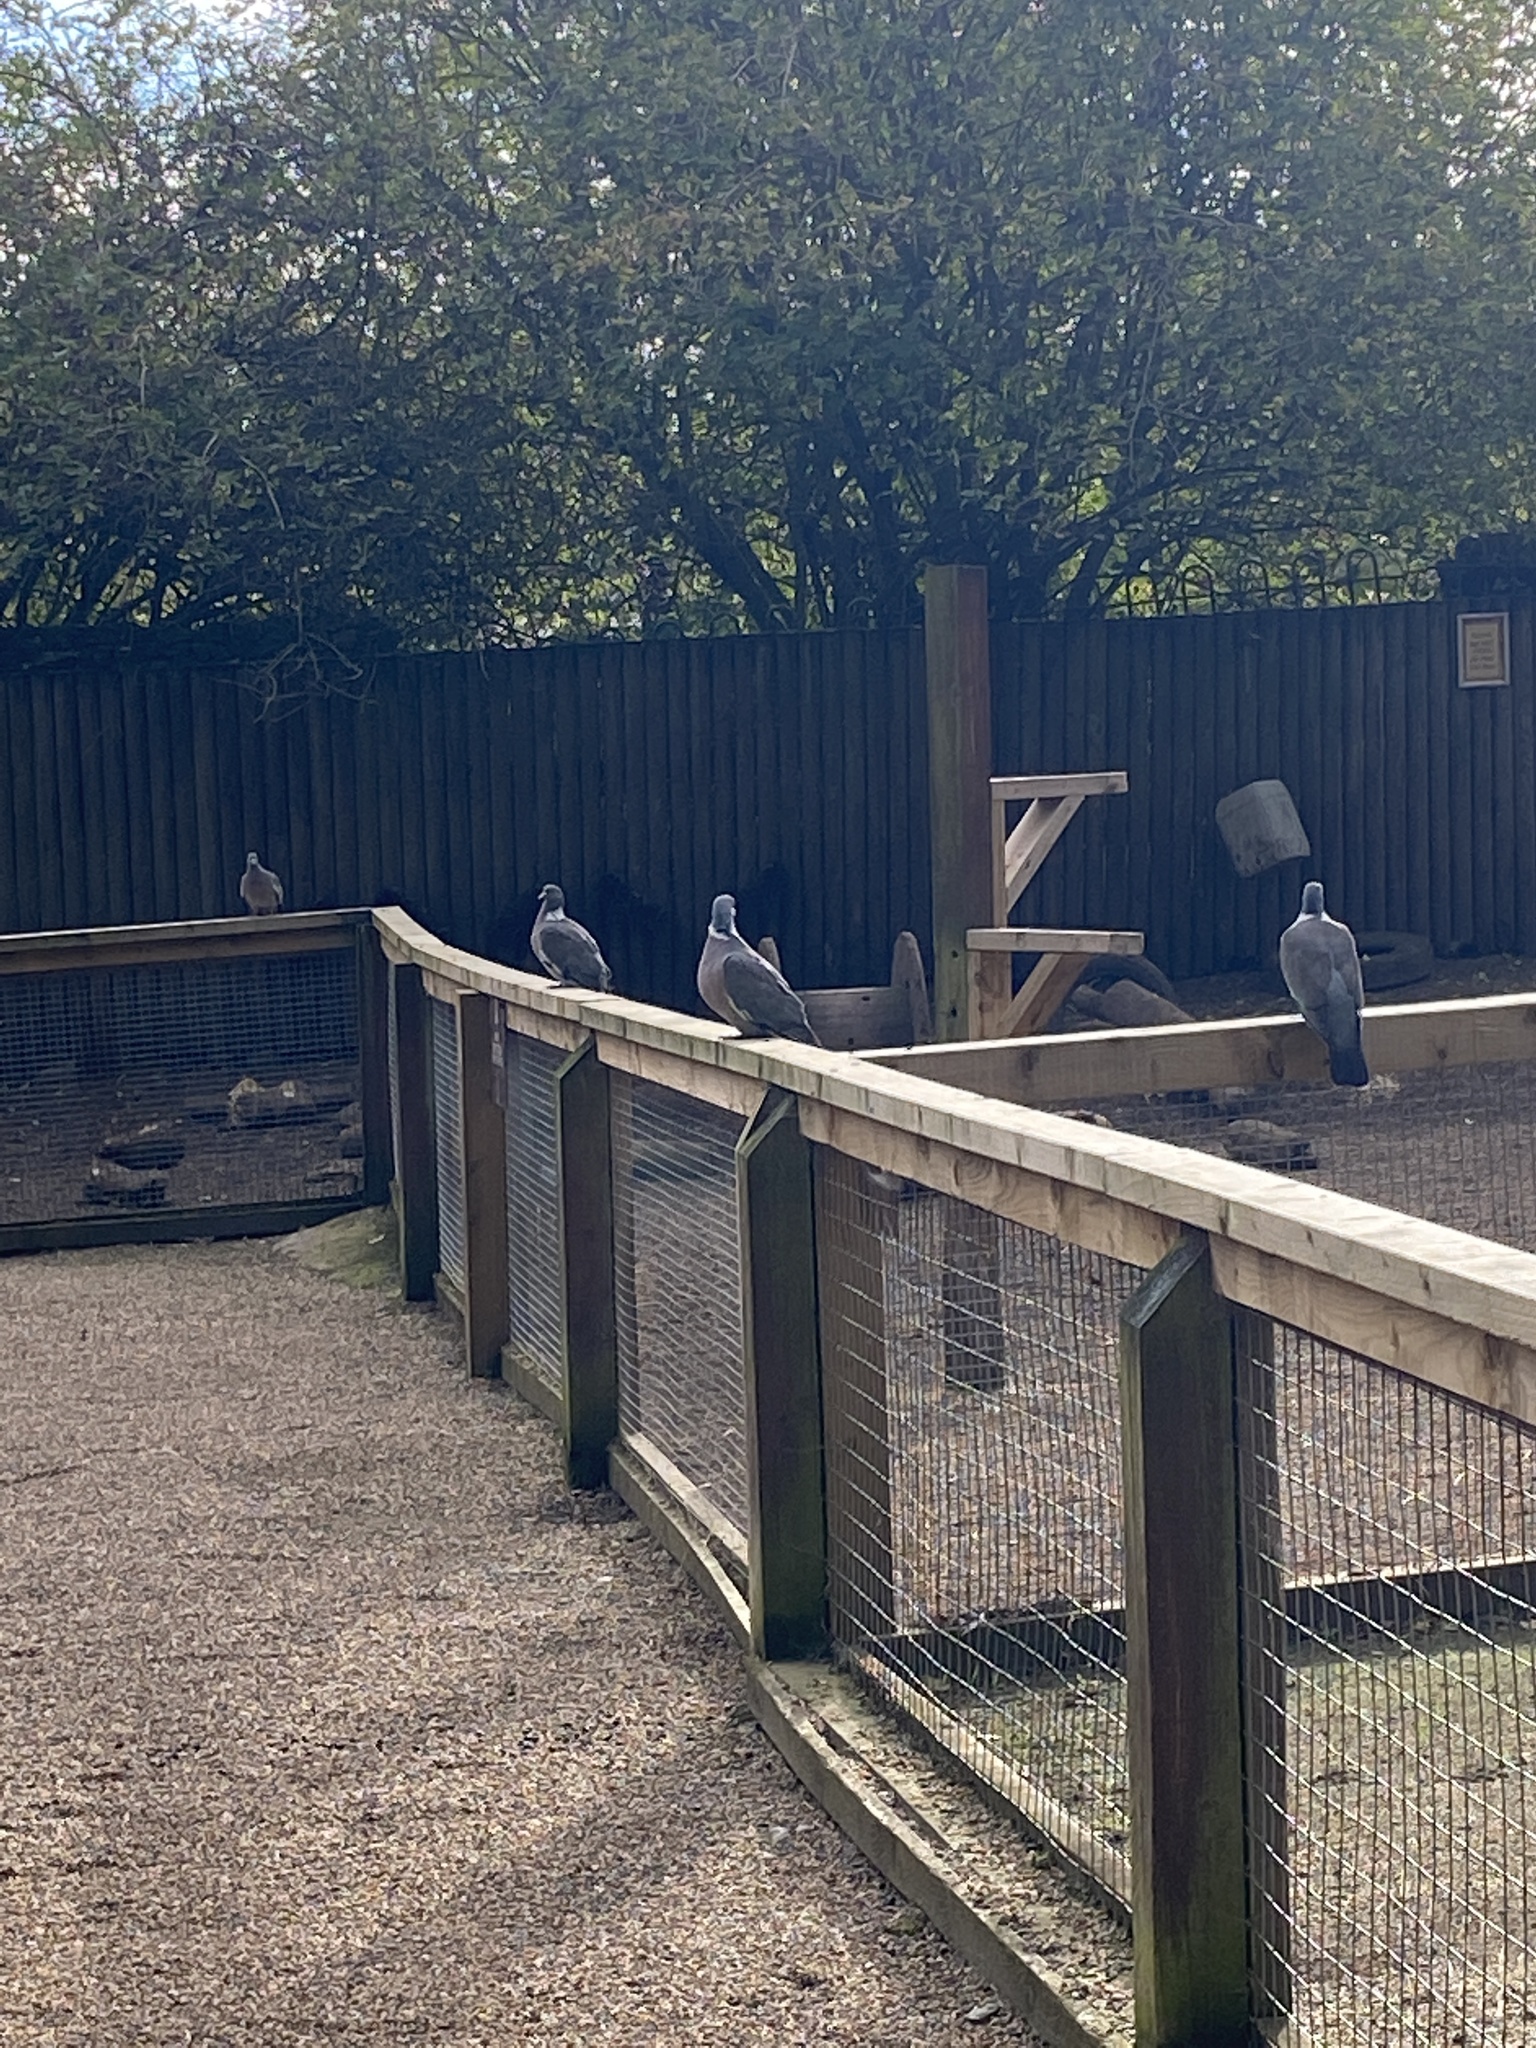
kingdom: Animalia
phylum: Chordata
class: Aves
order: Columbiformes
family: Columbidae
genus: Columba
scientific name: Columba palumbus
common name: Common wood pigeon
